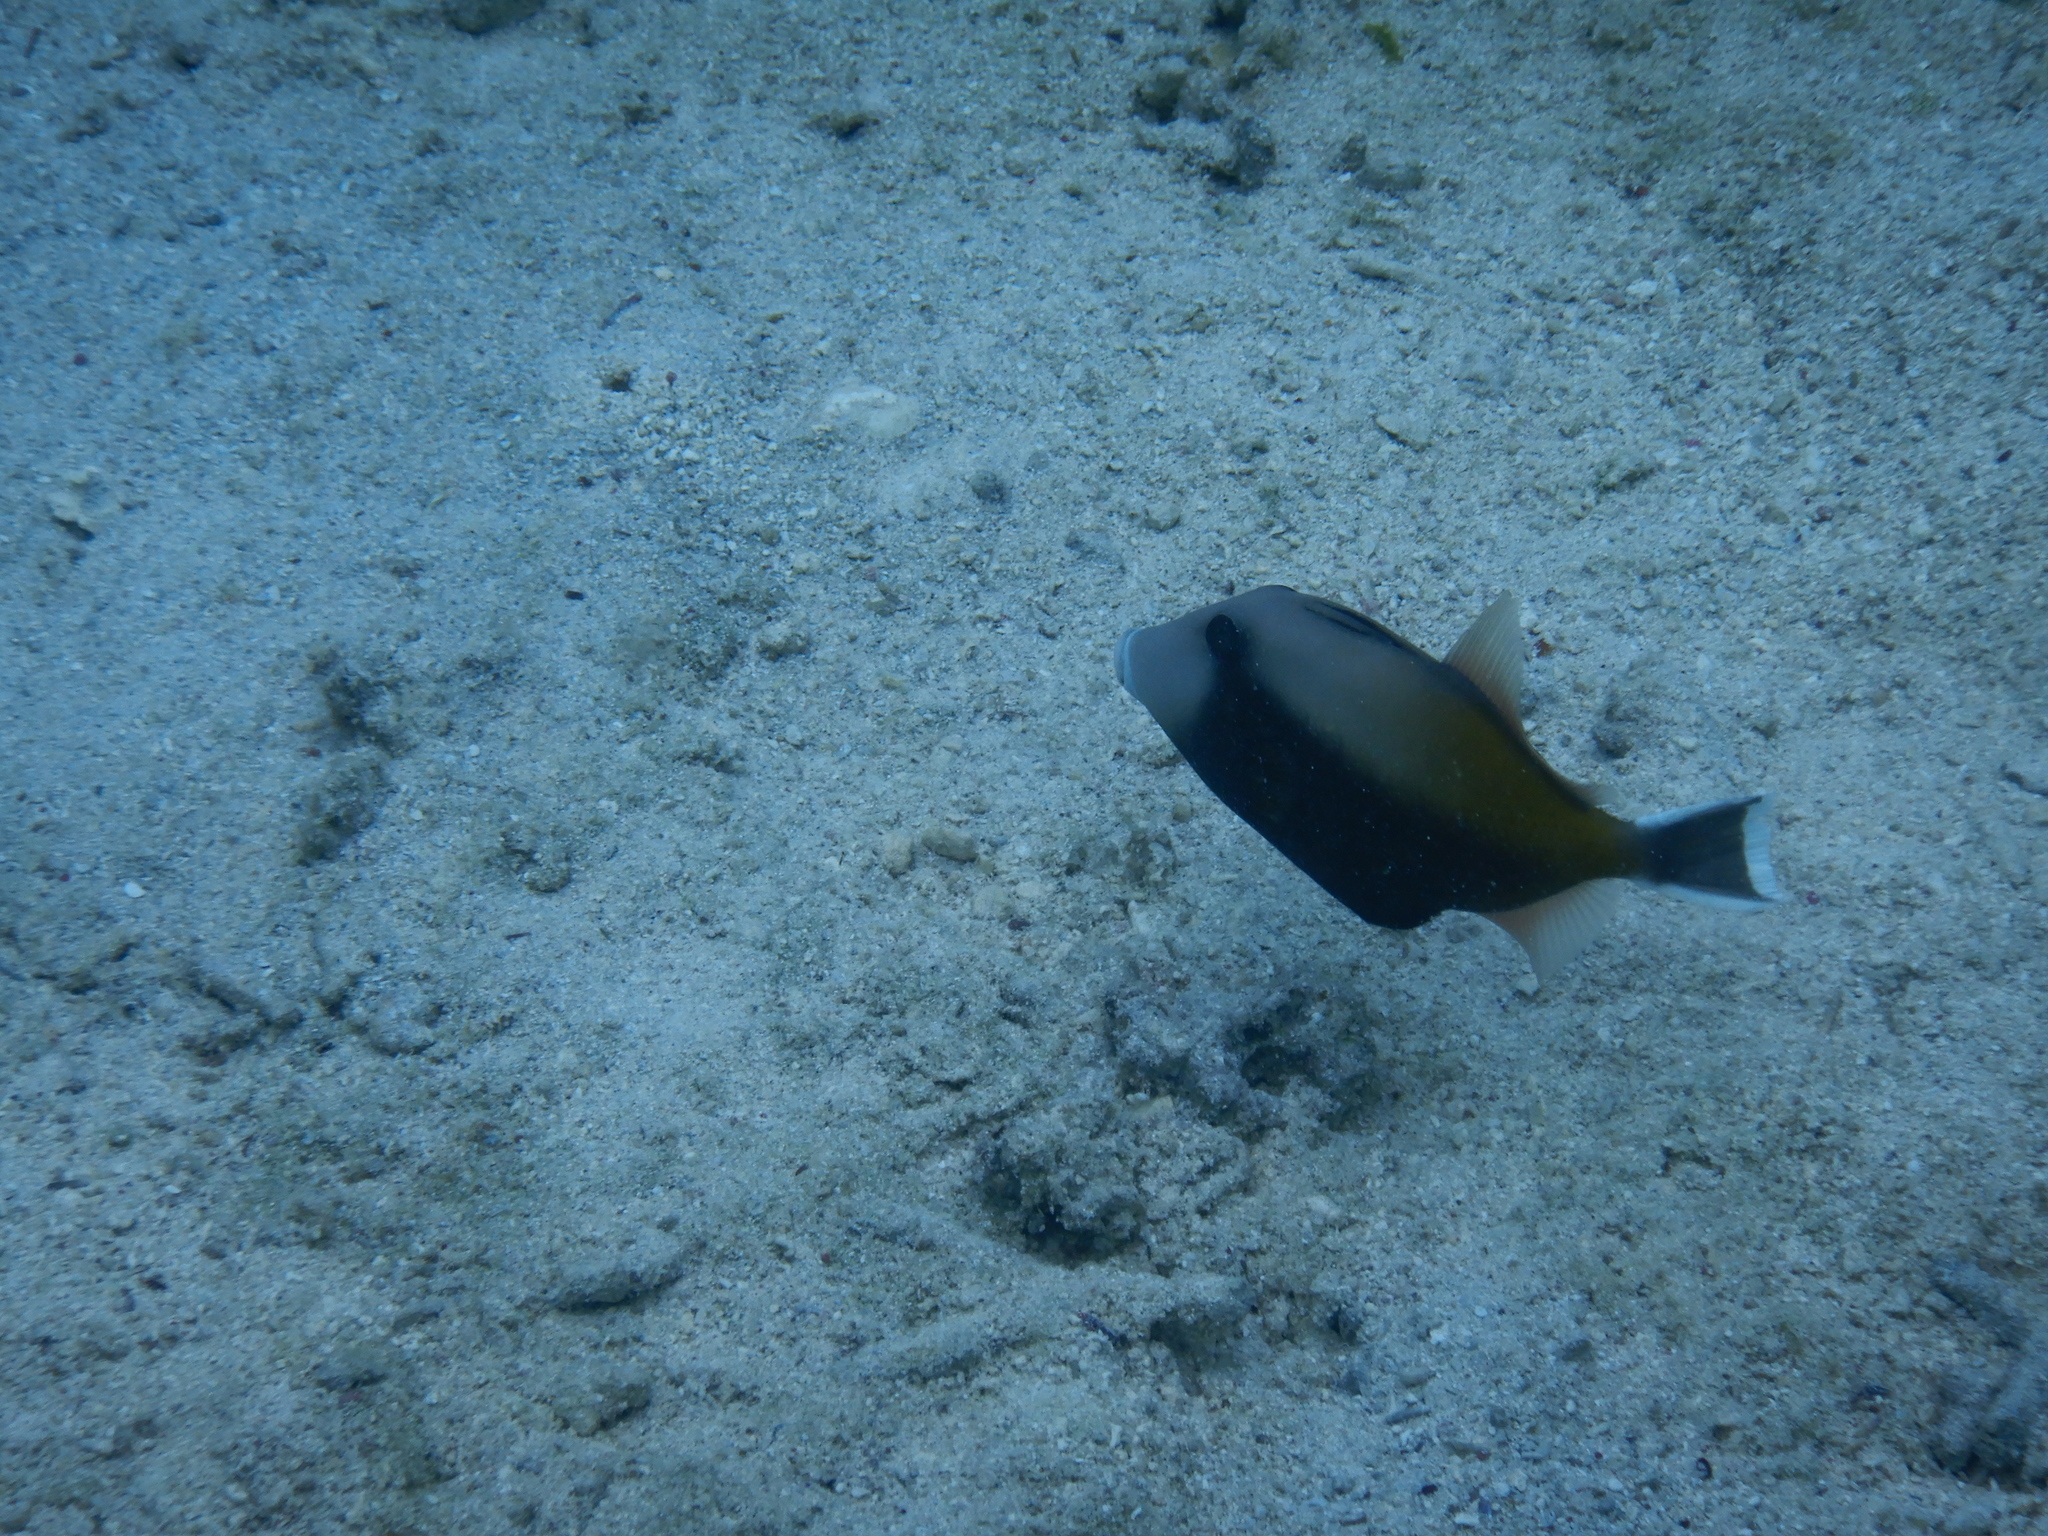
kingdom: Animalia
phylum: Chordata
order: Tetraodontiformes
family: Balistidae
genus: Sufflamen
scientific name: Sufflamen fraenatum
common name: Bridle triggerfish
